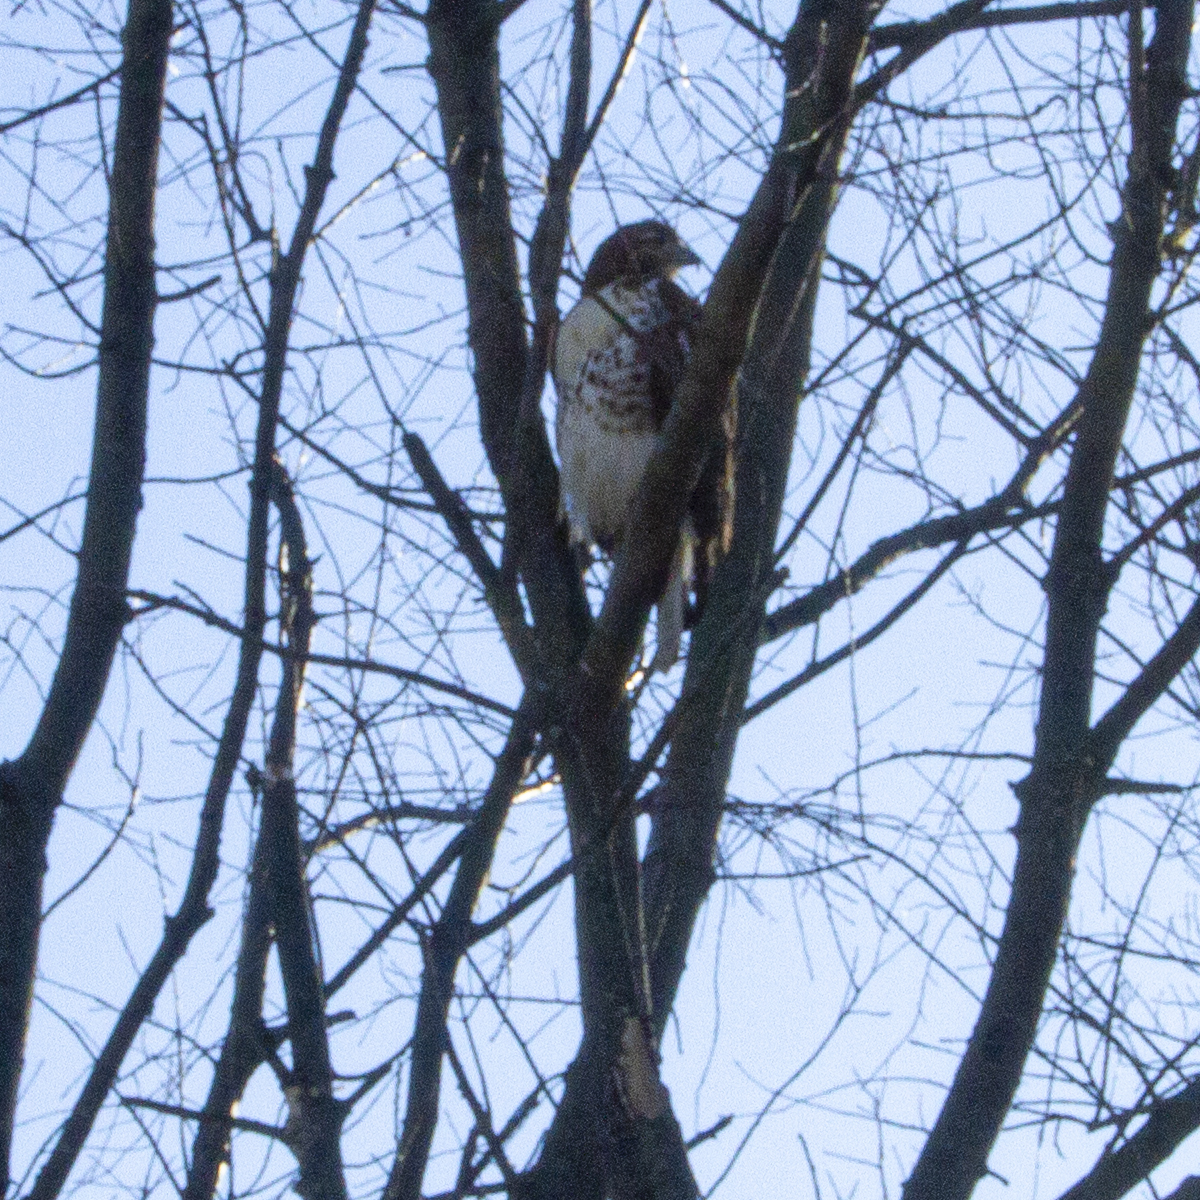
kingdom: Animalia
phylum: Chordata
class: Aves
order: Accipitriformes
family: Accipitridae
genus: Buteo
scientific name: Buteo jamaicensis
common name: Red-tailed hawk
